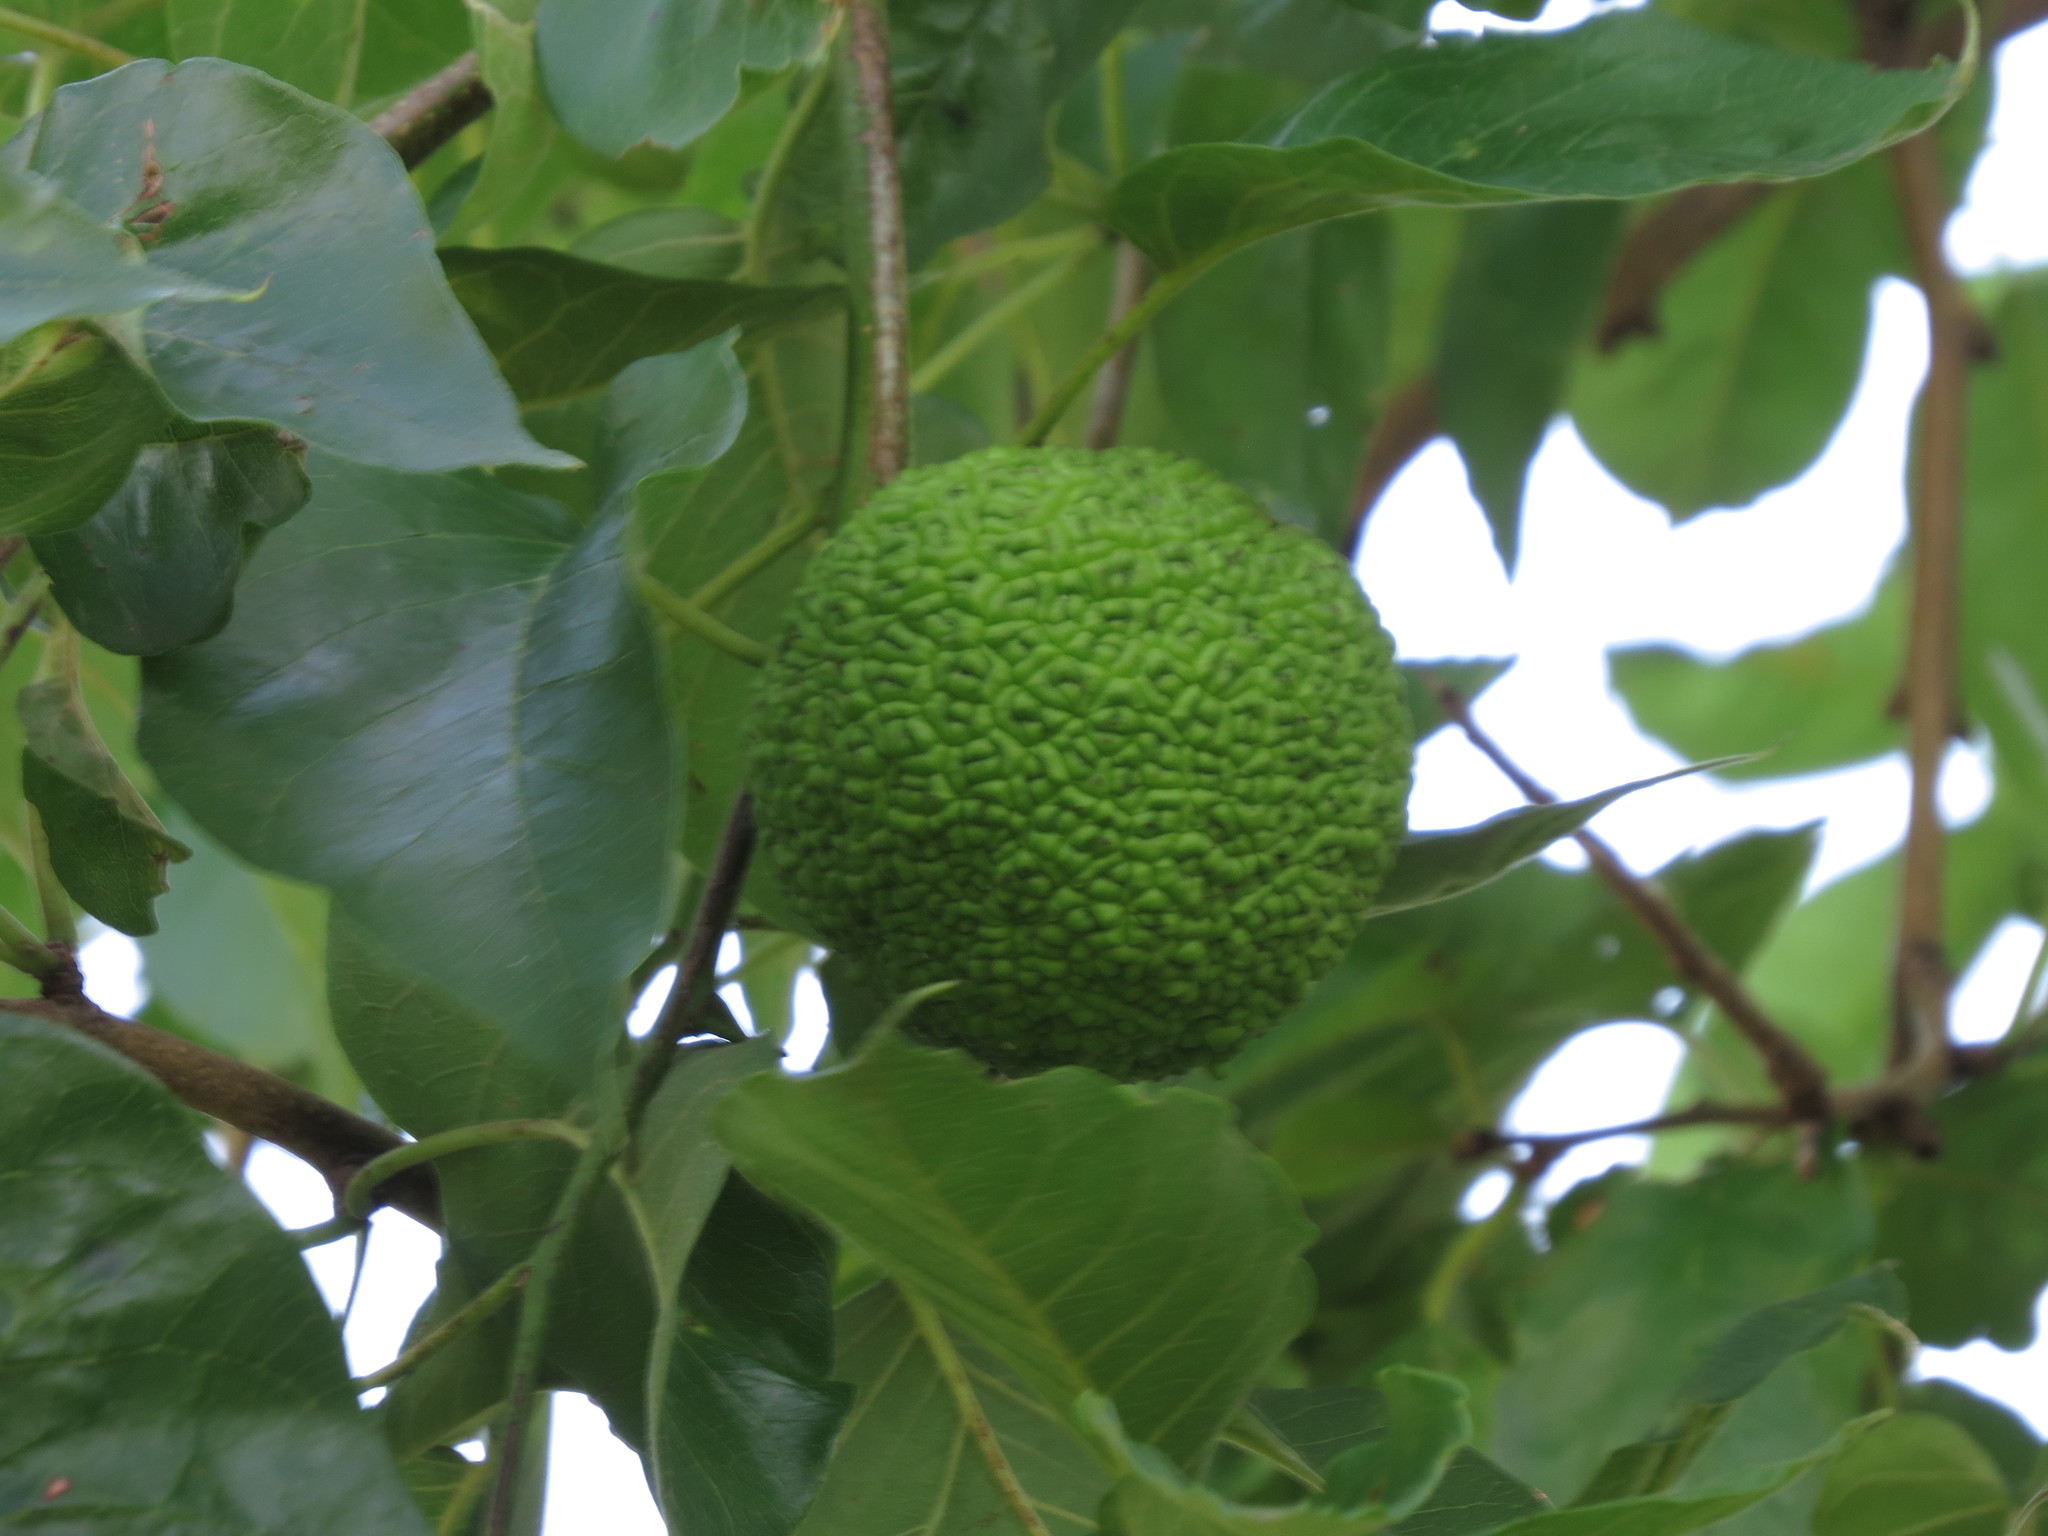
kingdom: Plantae
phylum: Tracheophyta
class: Magnoliopsida
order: Rosales
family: Moraceae
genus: Maclura
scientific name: Maclura pomifera
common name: Osage-orange
